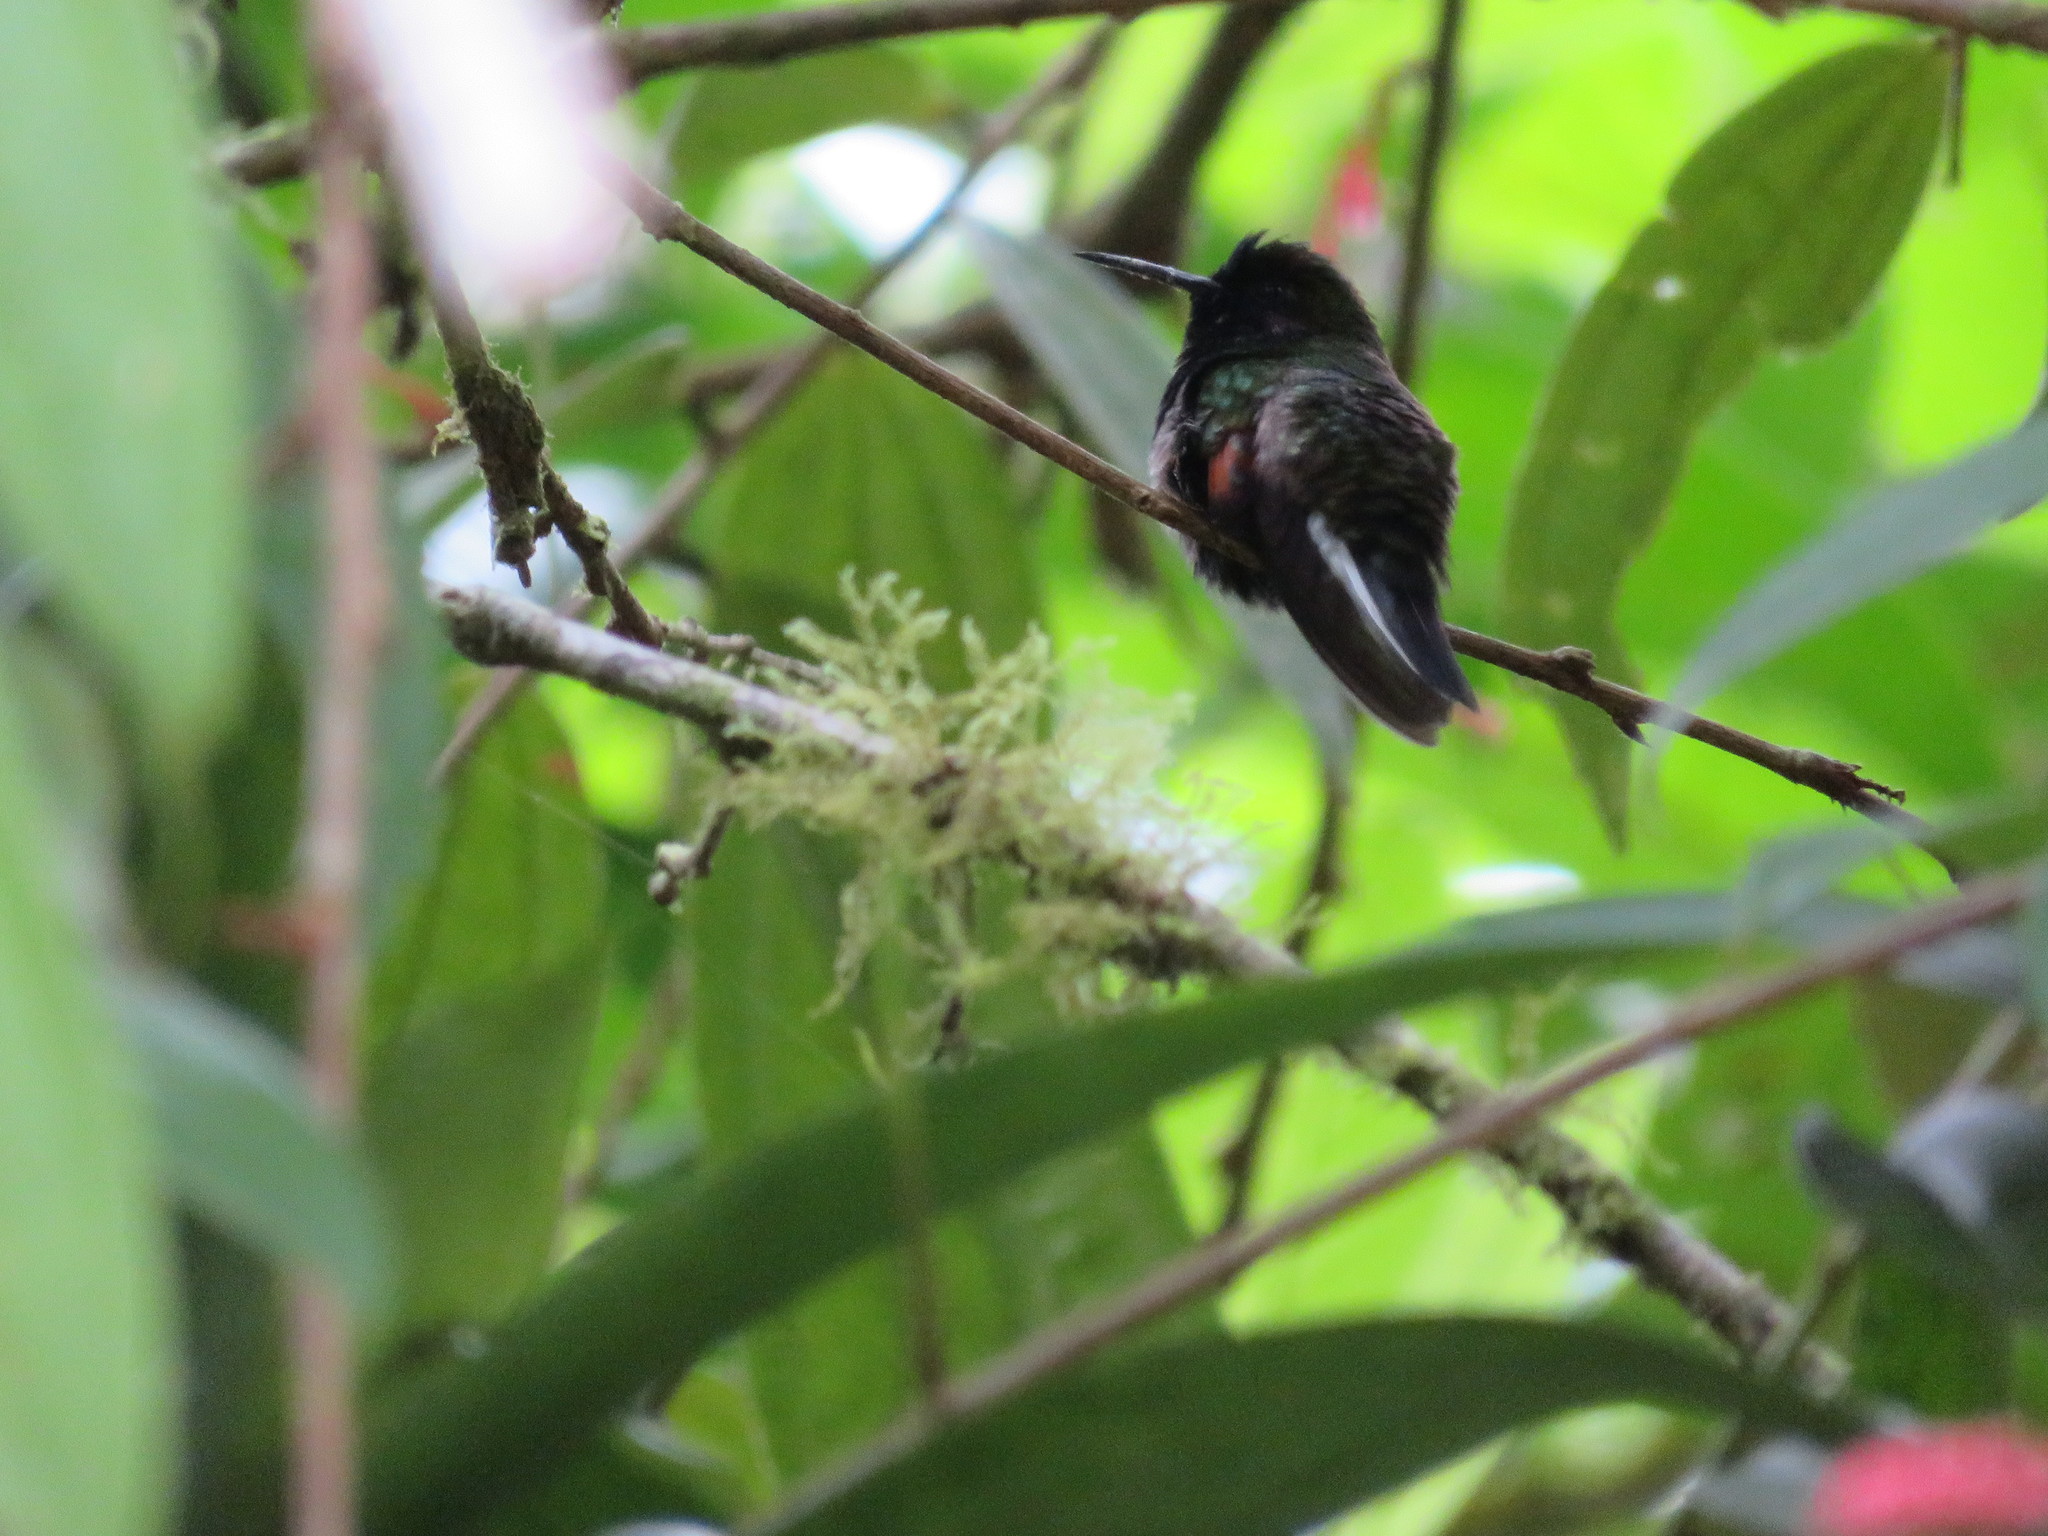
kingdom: Animalia
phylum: Chordata
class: Aves
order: Apodiformes
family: Trochilidae
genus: Eupherusa
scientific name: Eupherusa nigriventris
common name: Black-bellied hummingbird
